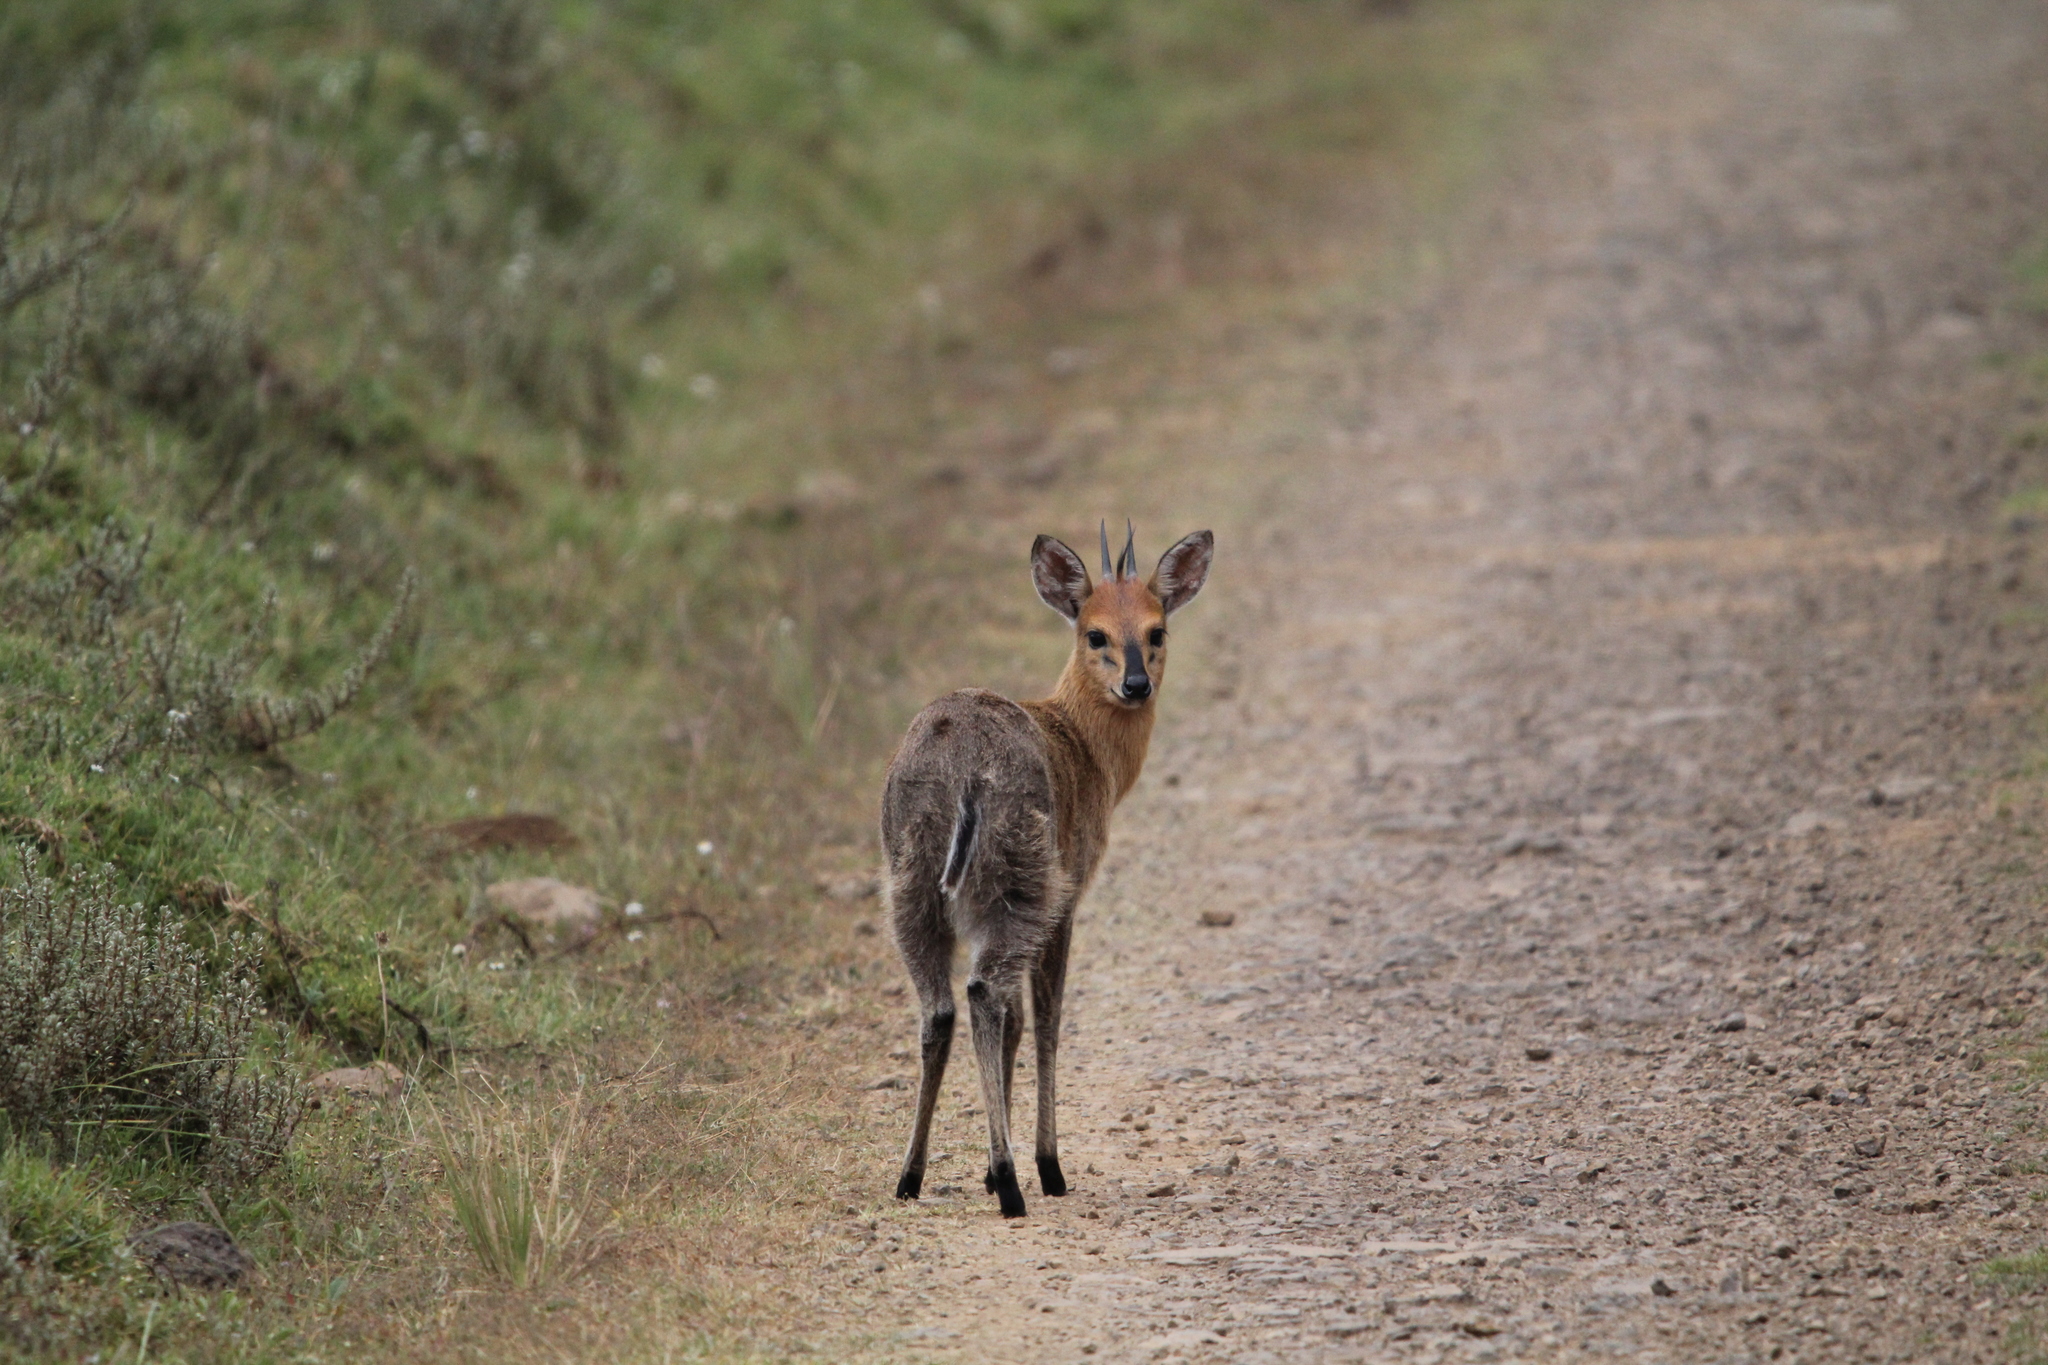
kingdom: Animalia
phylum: Chordata
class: Mammalia
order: Artiodactyla
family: Bovidae
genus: Sylvicapra
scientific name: Sylvicapra grimmia
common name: Bush duiker
